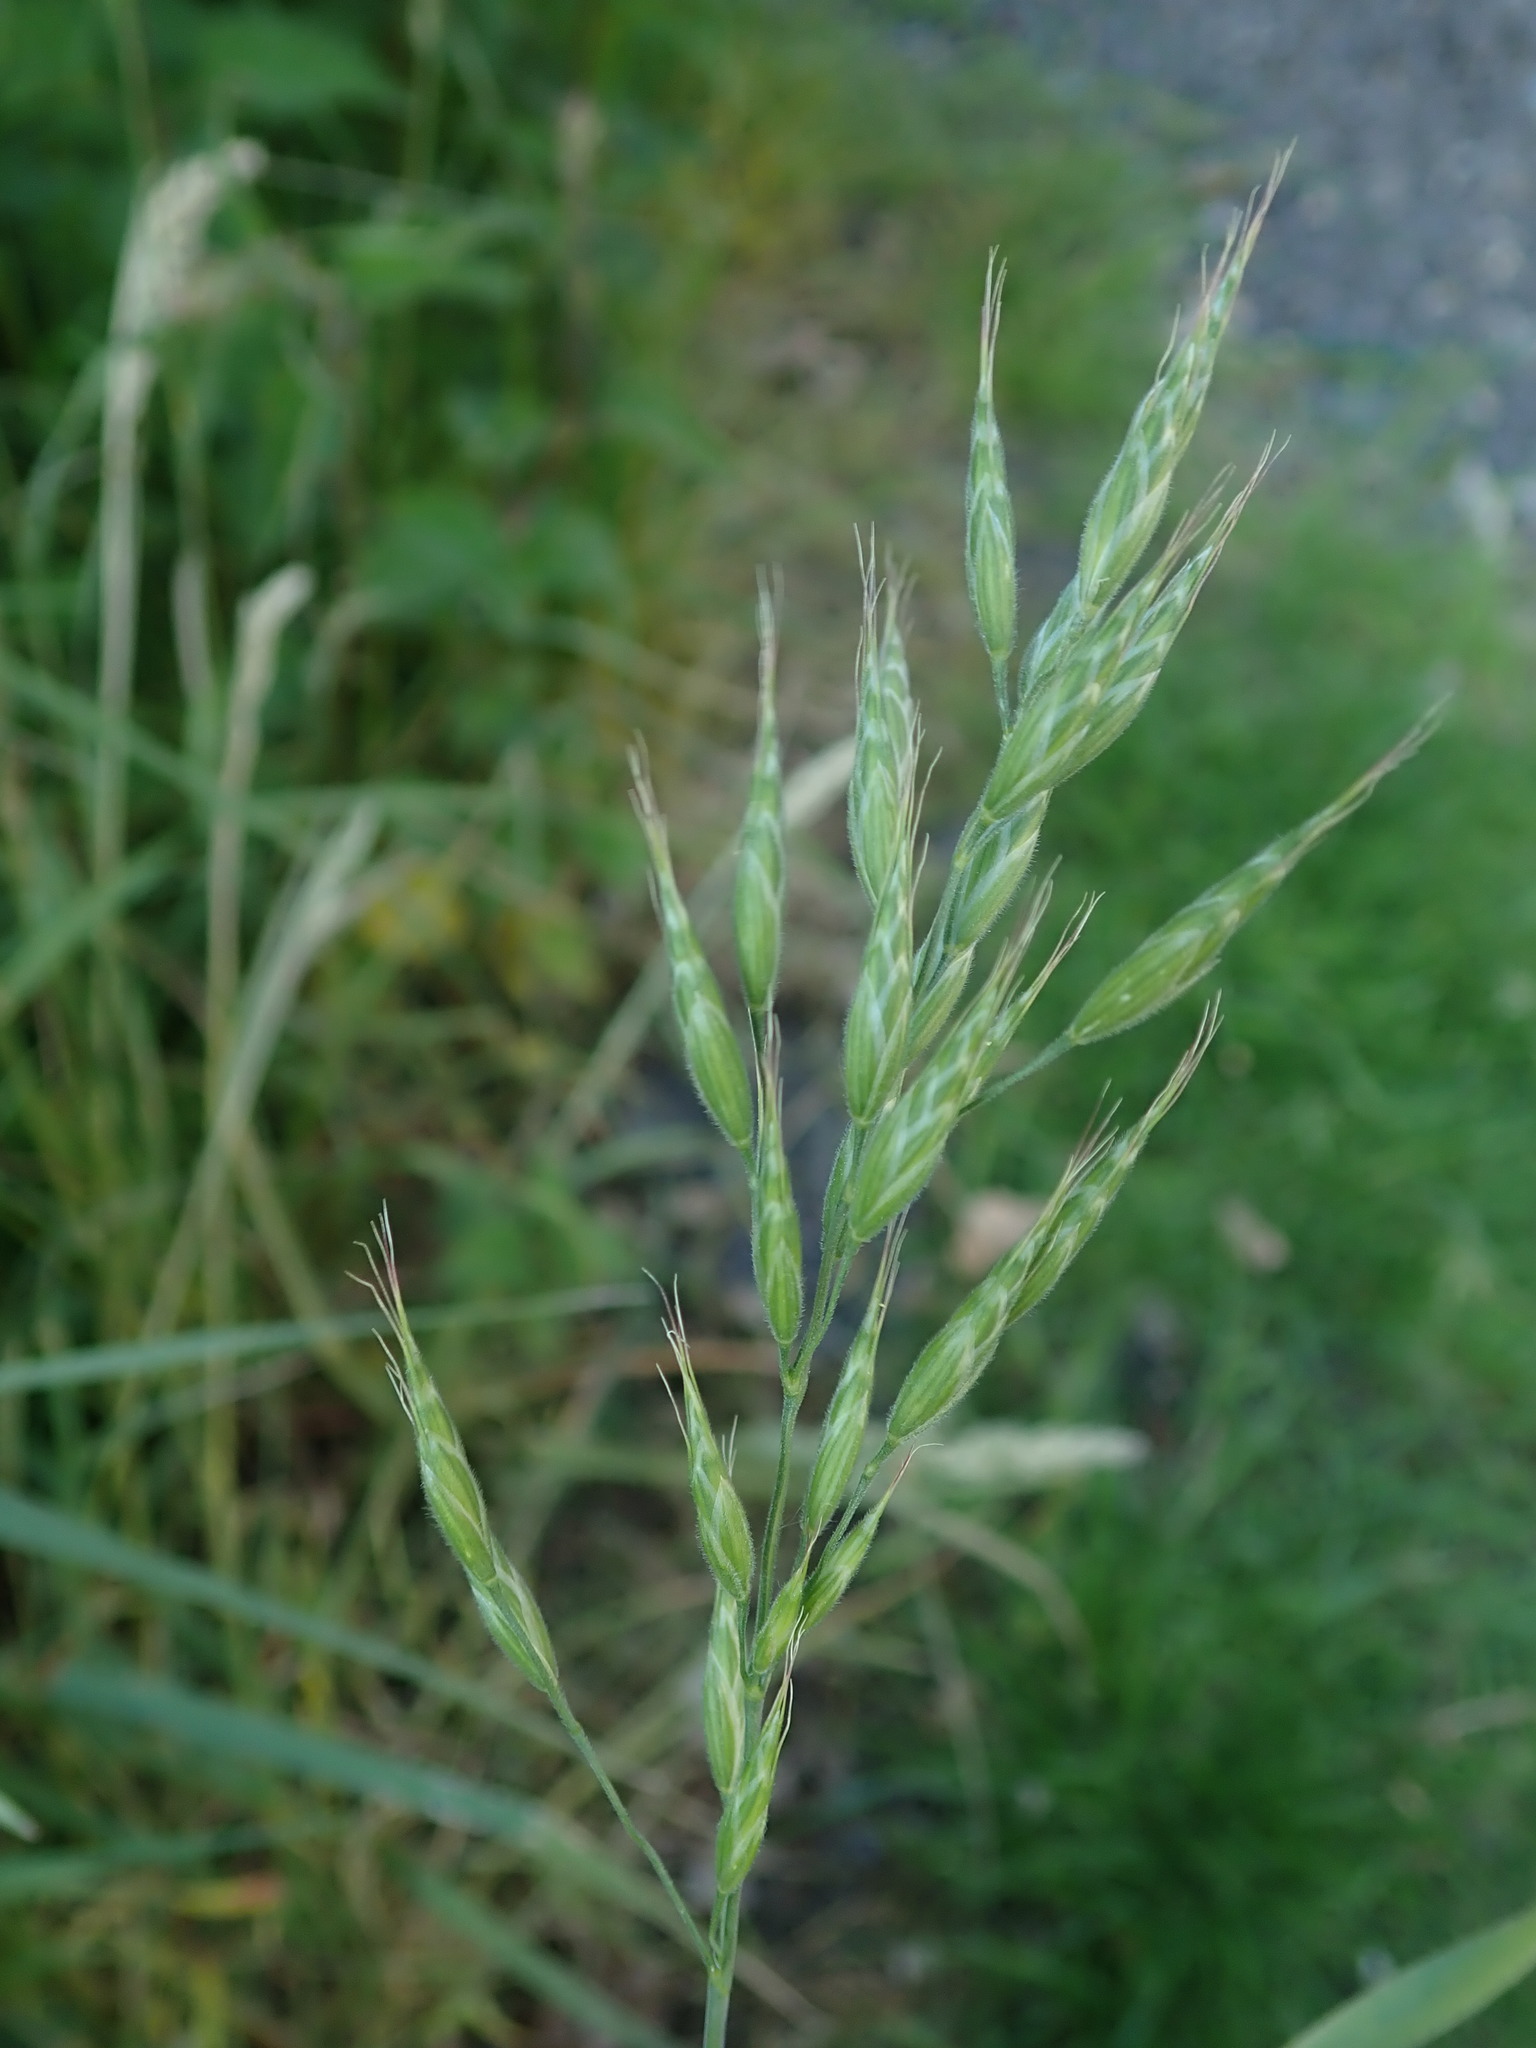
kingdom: Plantae
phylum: Tracheophyta
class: Liliopsida
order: Poales
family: Poaceae
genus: Bromus
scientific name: Bromus hordeaceus
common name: Soft brome
